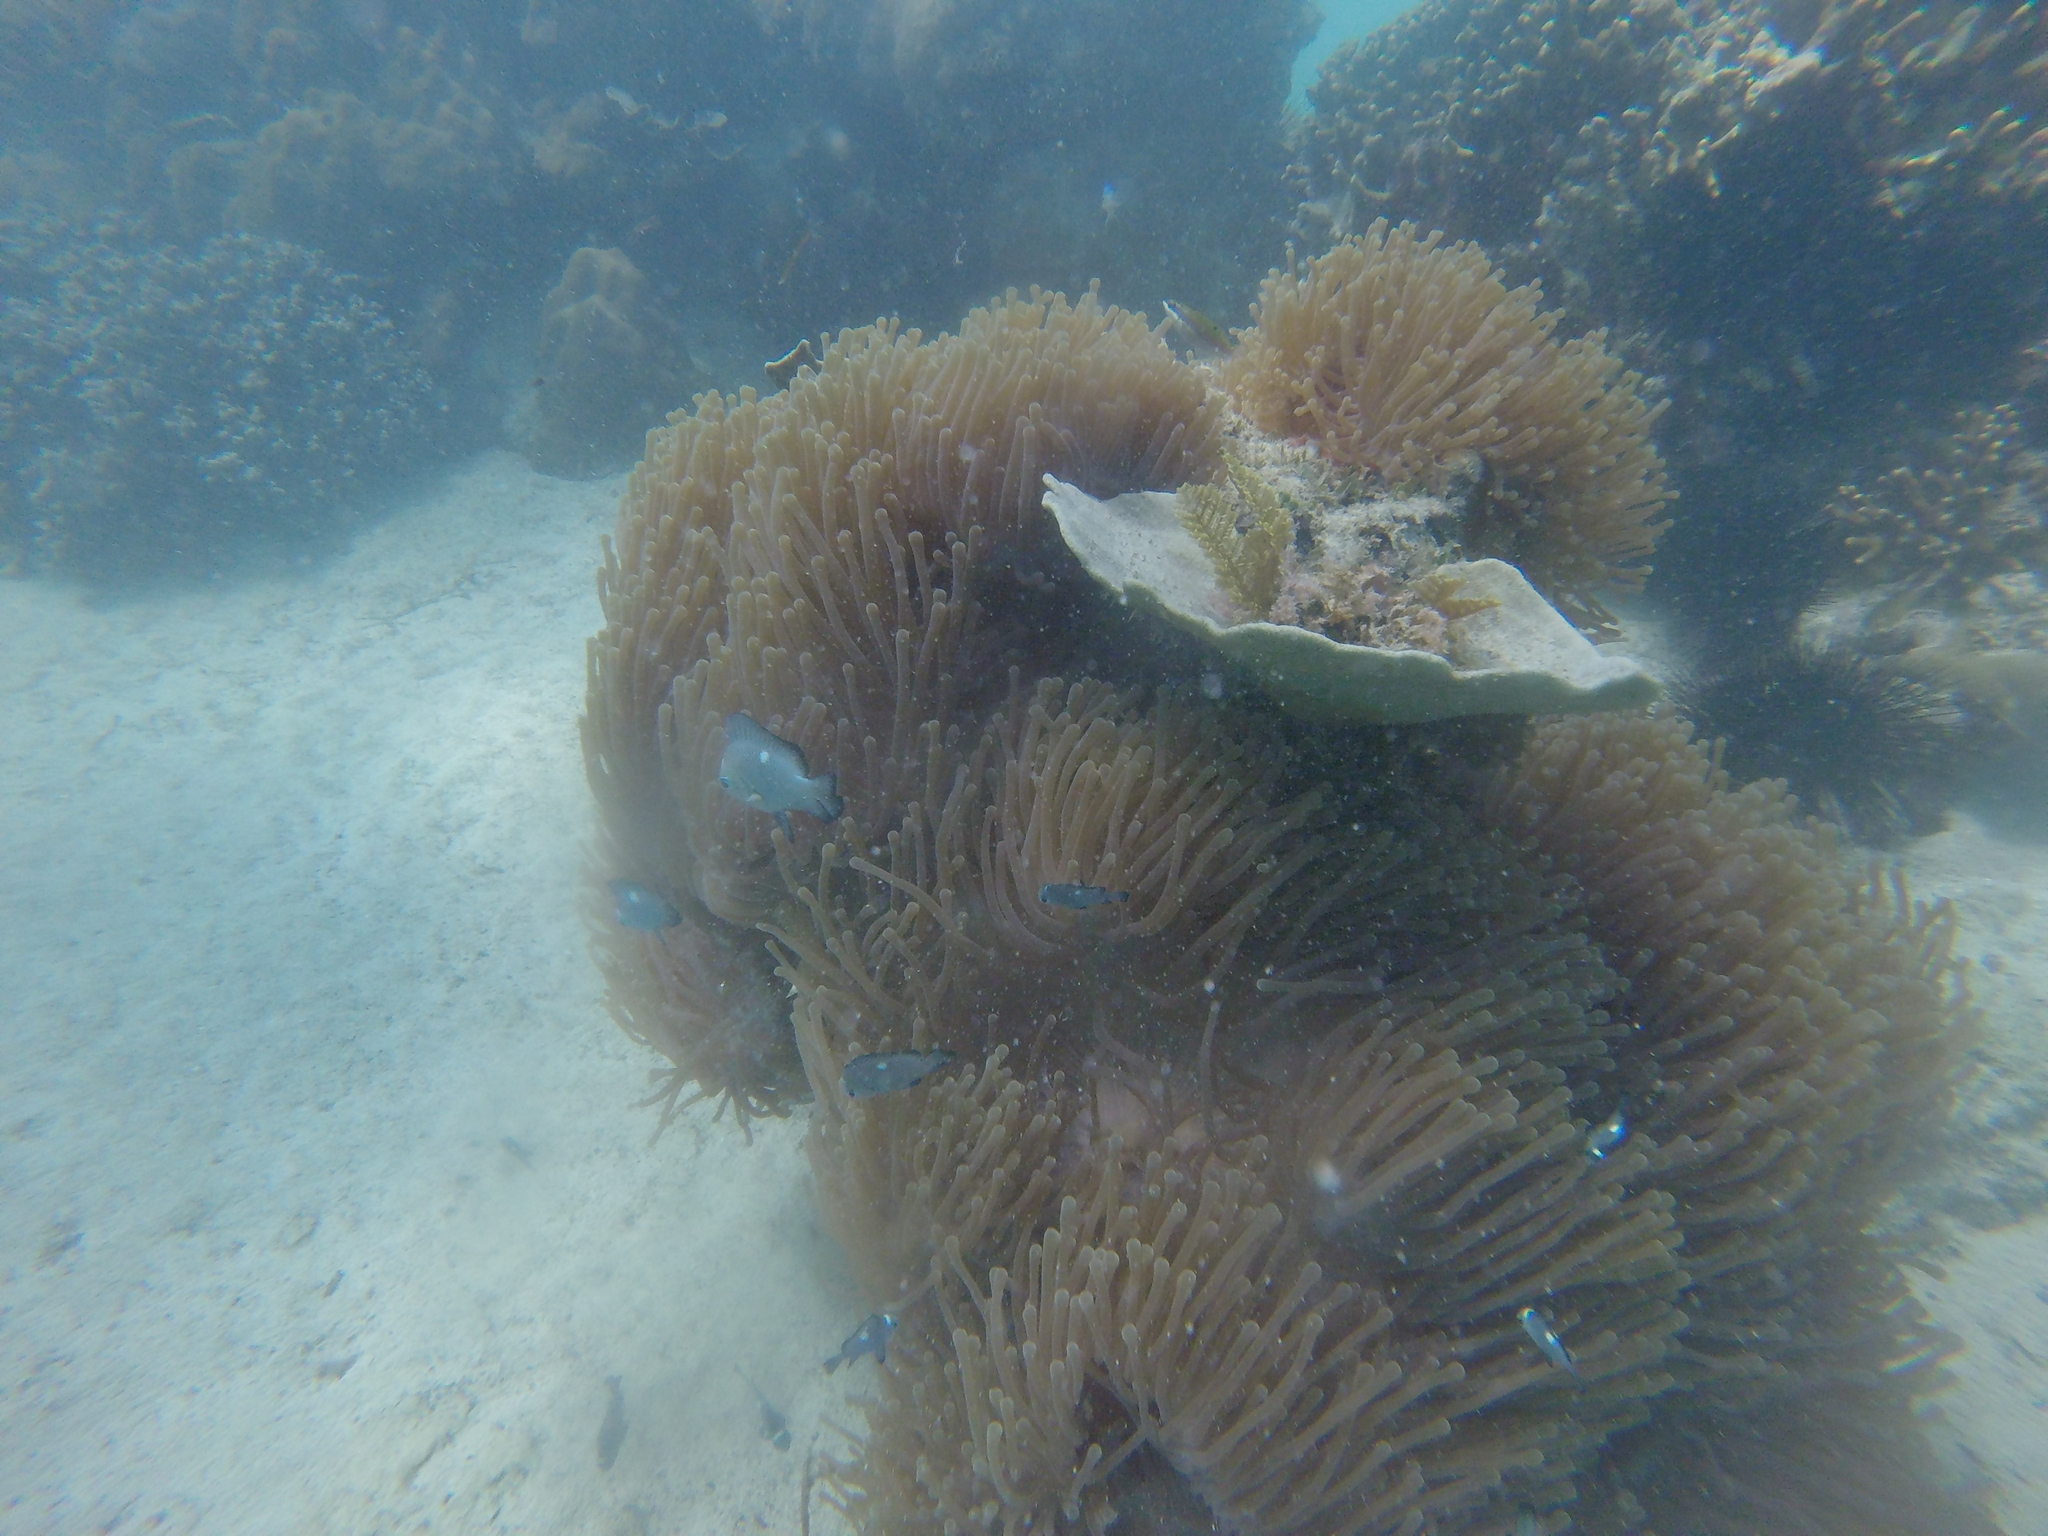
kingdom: Animalia
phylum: Cnidaria
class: Anthozoa
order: Actiniaria
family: Stichodactylidae
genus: Radianthus
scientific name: Radianthus magnifica
